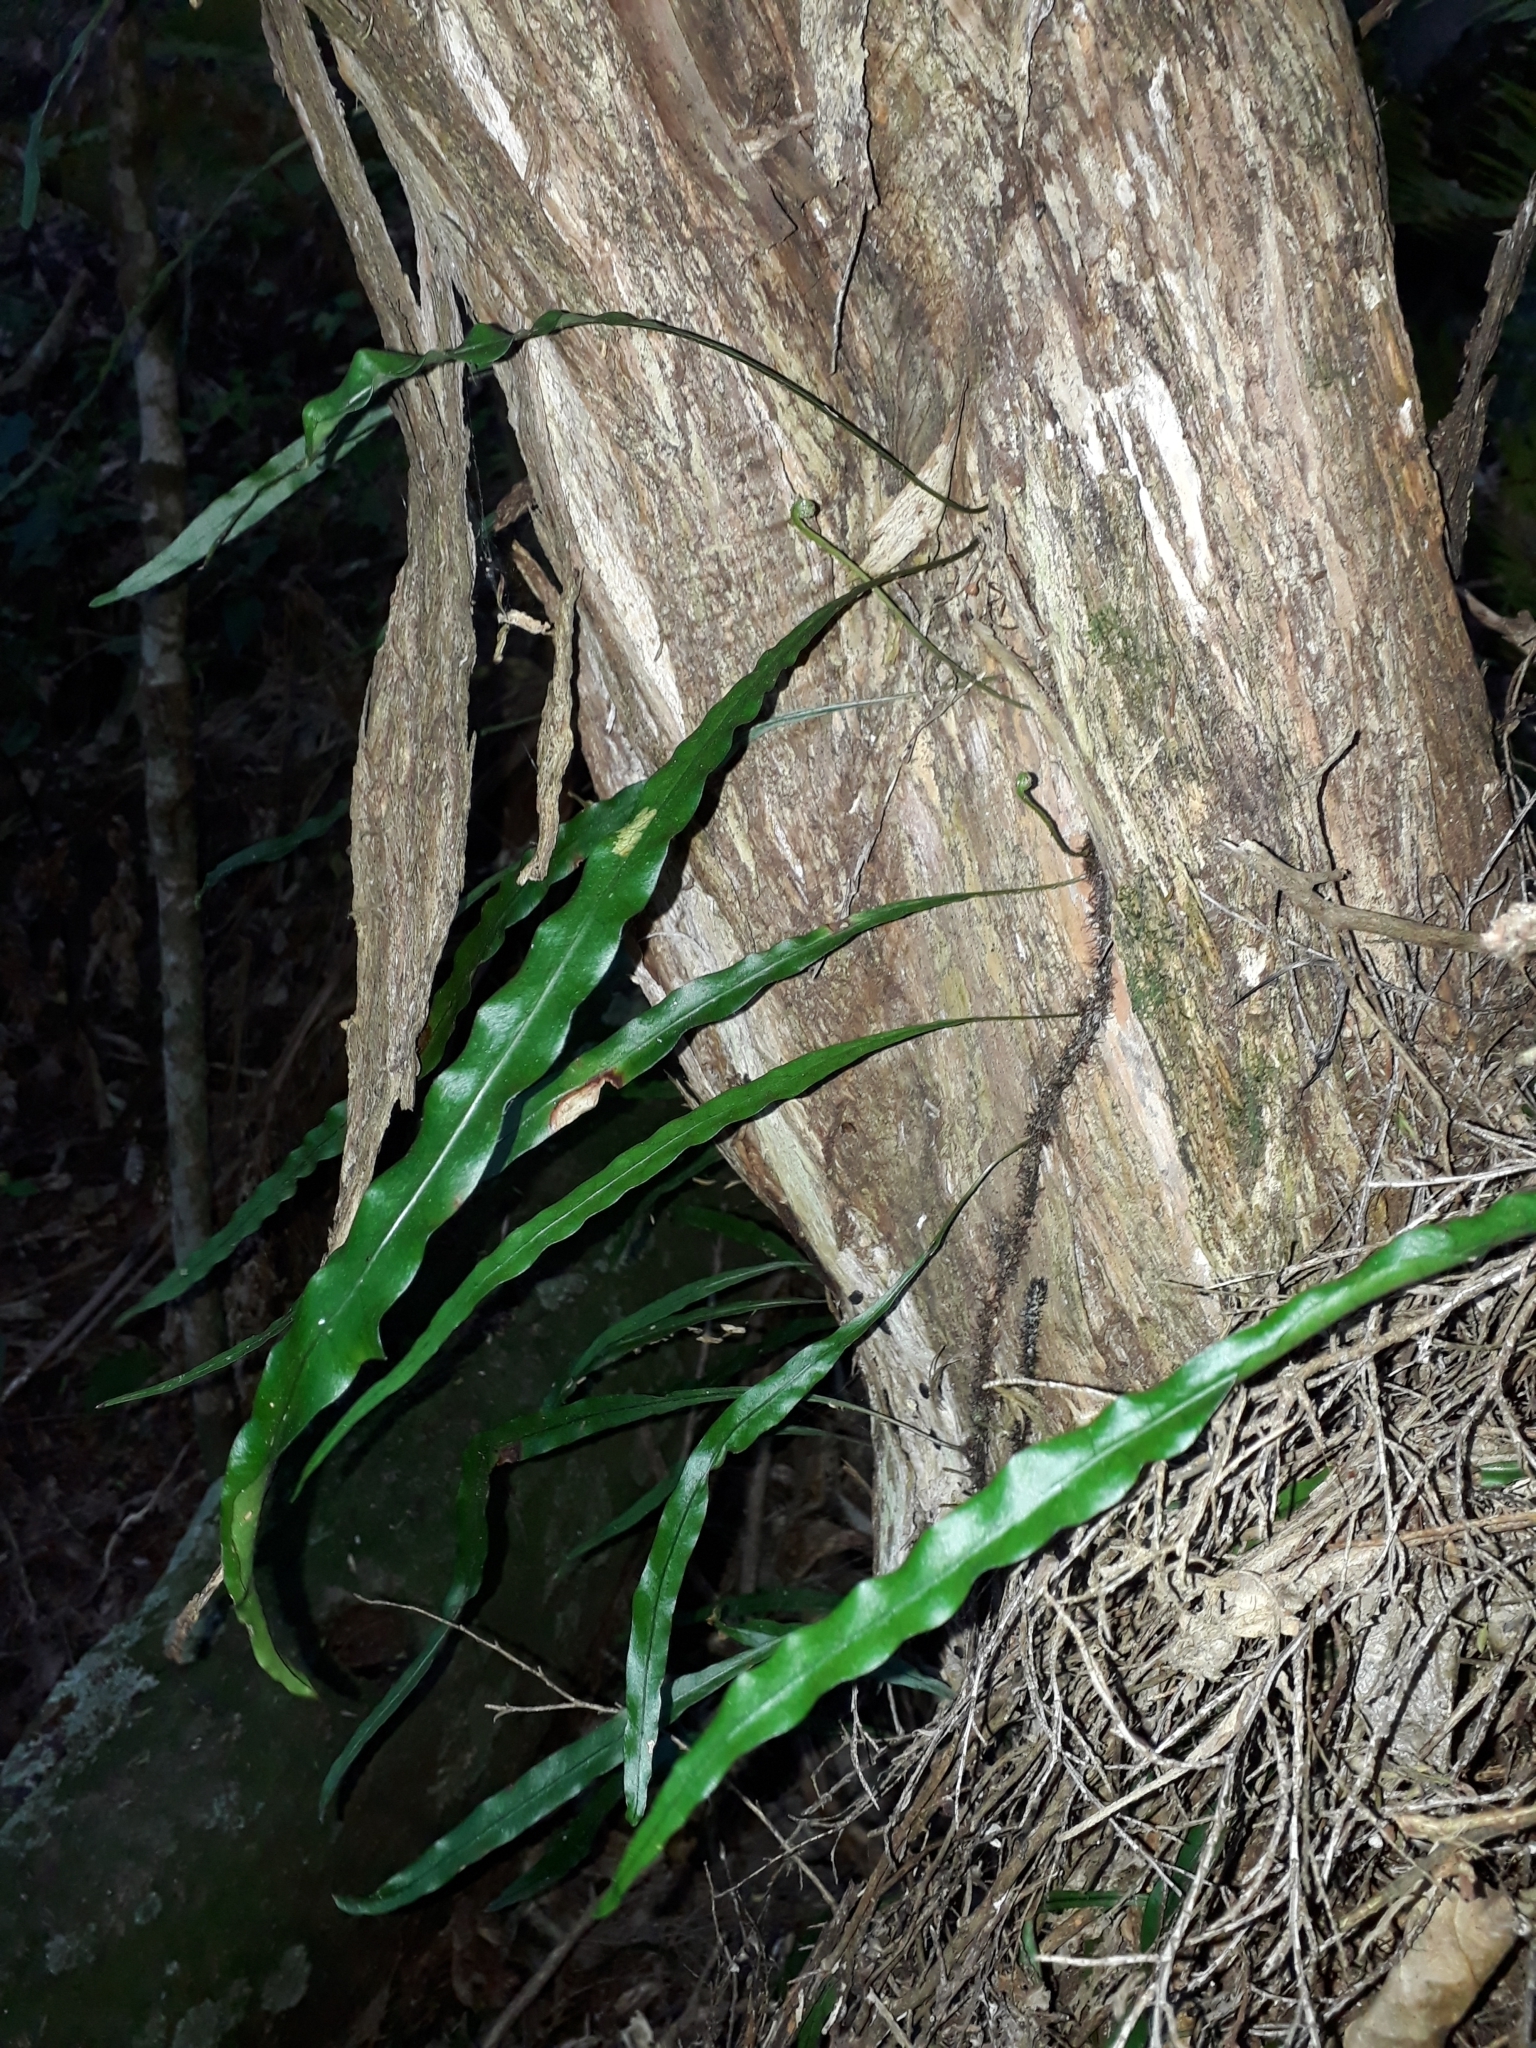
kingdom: Plantae
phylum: Tracheophyta
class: Polypodiopsida
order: Polypodiales
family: Polypodiaceae
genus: Lecanopteris
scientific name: Lecanopteris scandens
